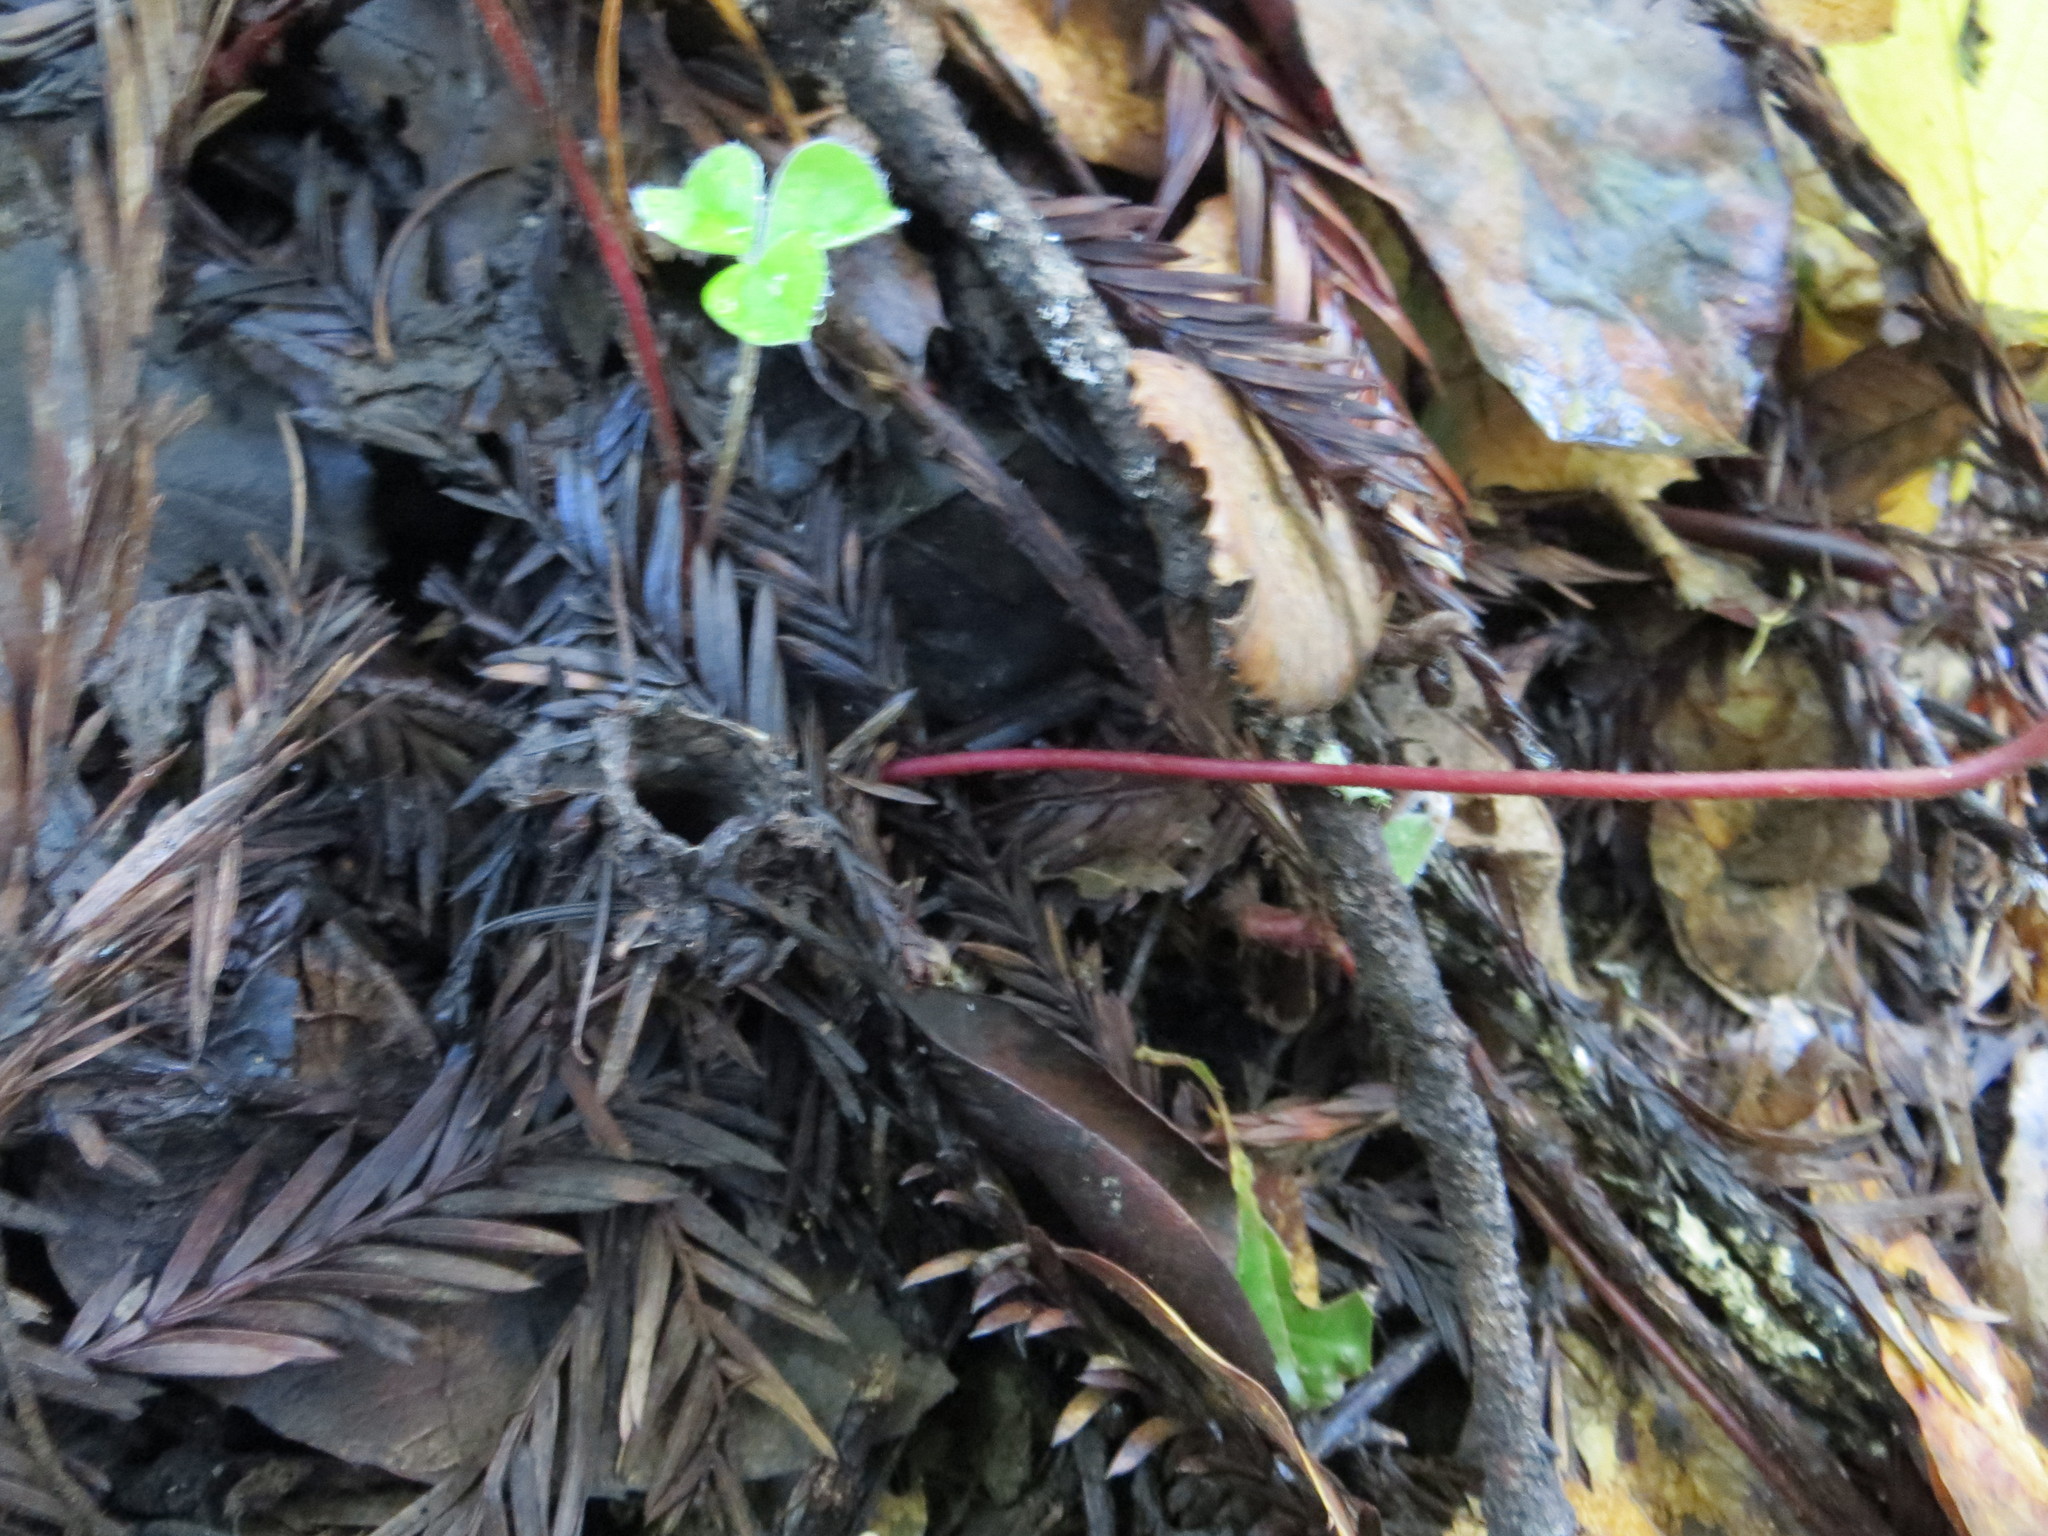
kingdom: Animalia
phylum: Arthropoda
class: Arachnida
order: Araneae
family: Antrodiaetidae
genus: Atypoides
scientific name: Atypoides riversi
